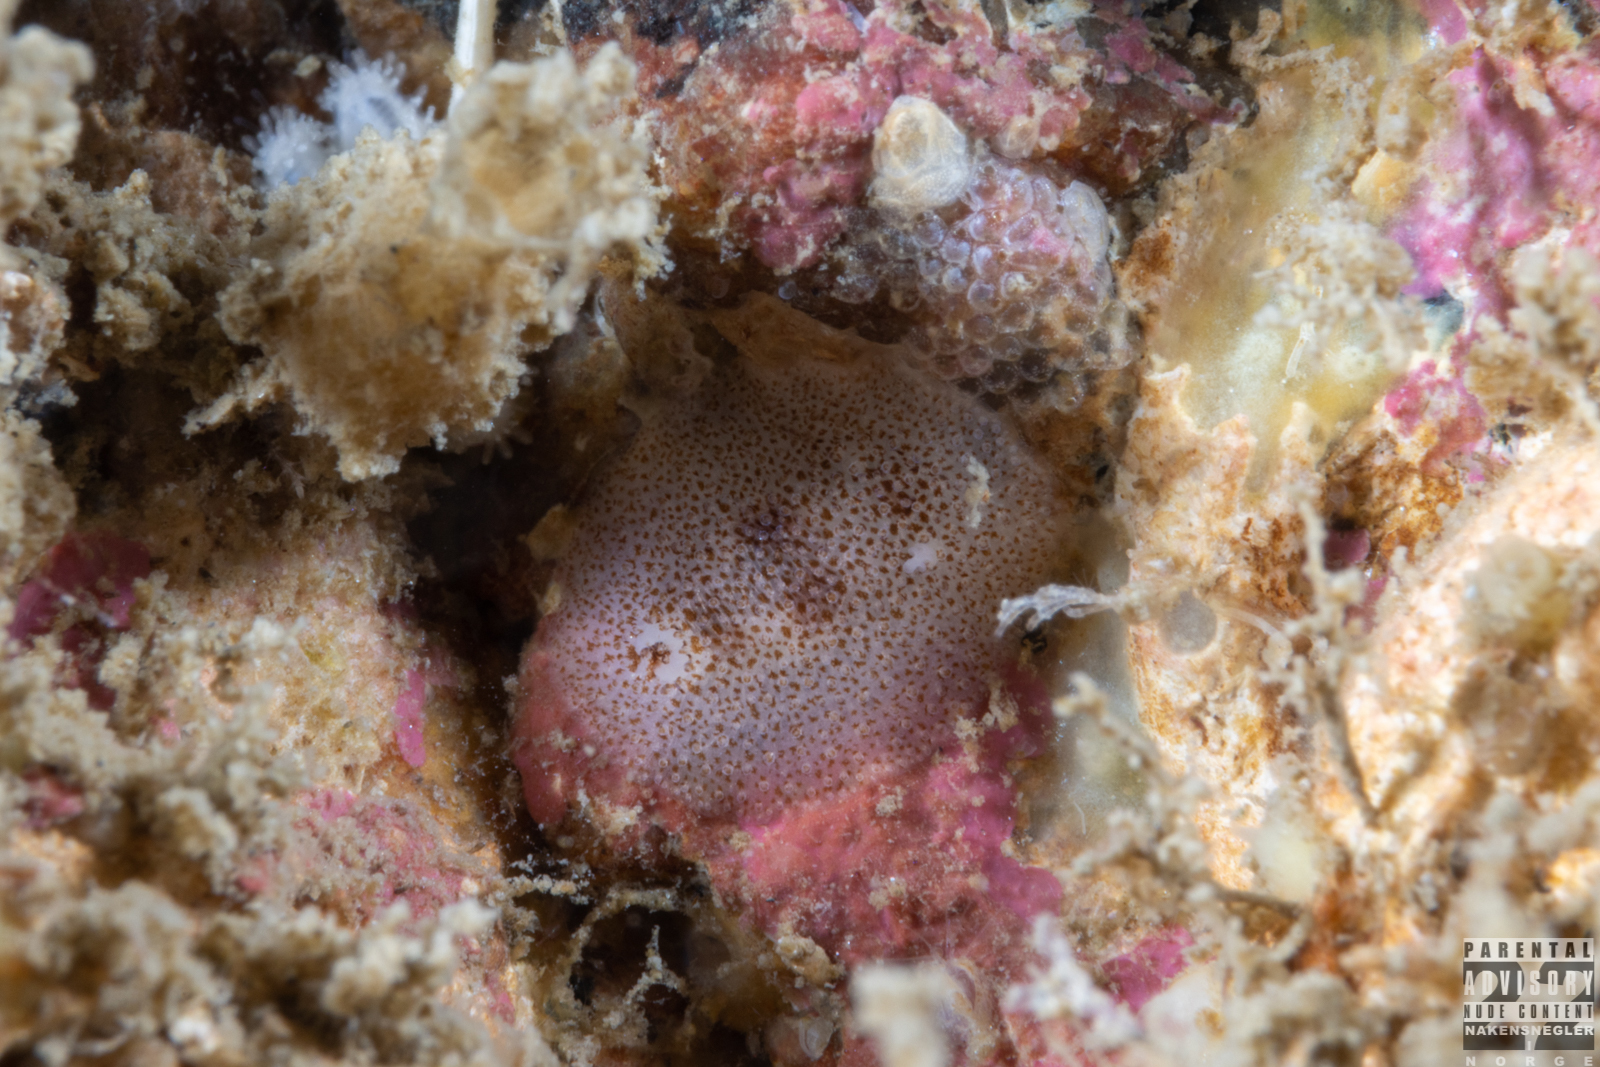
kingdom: Animalia
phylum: Mollusca
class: Gastropoda
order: Nudibranchia
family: Onchidorididae
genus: Atalodoris
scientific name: Atalodoris pusilla
